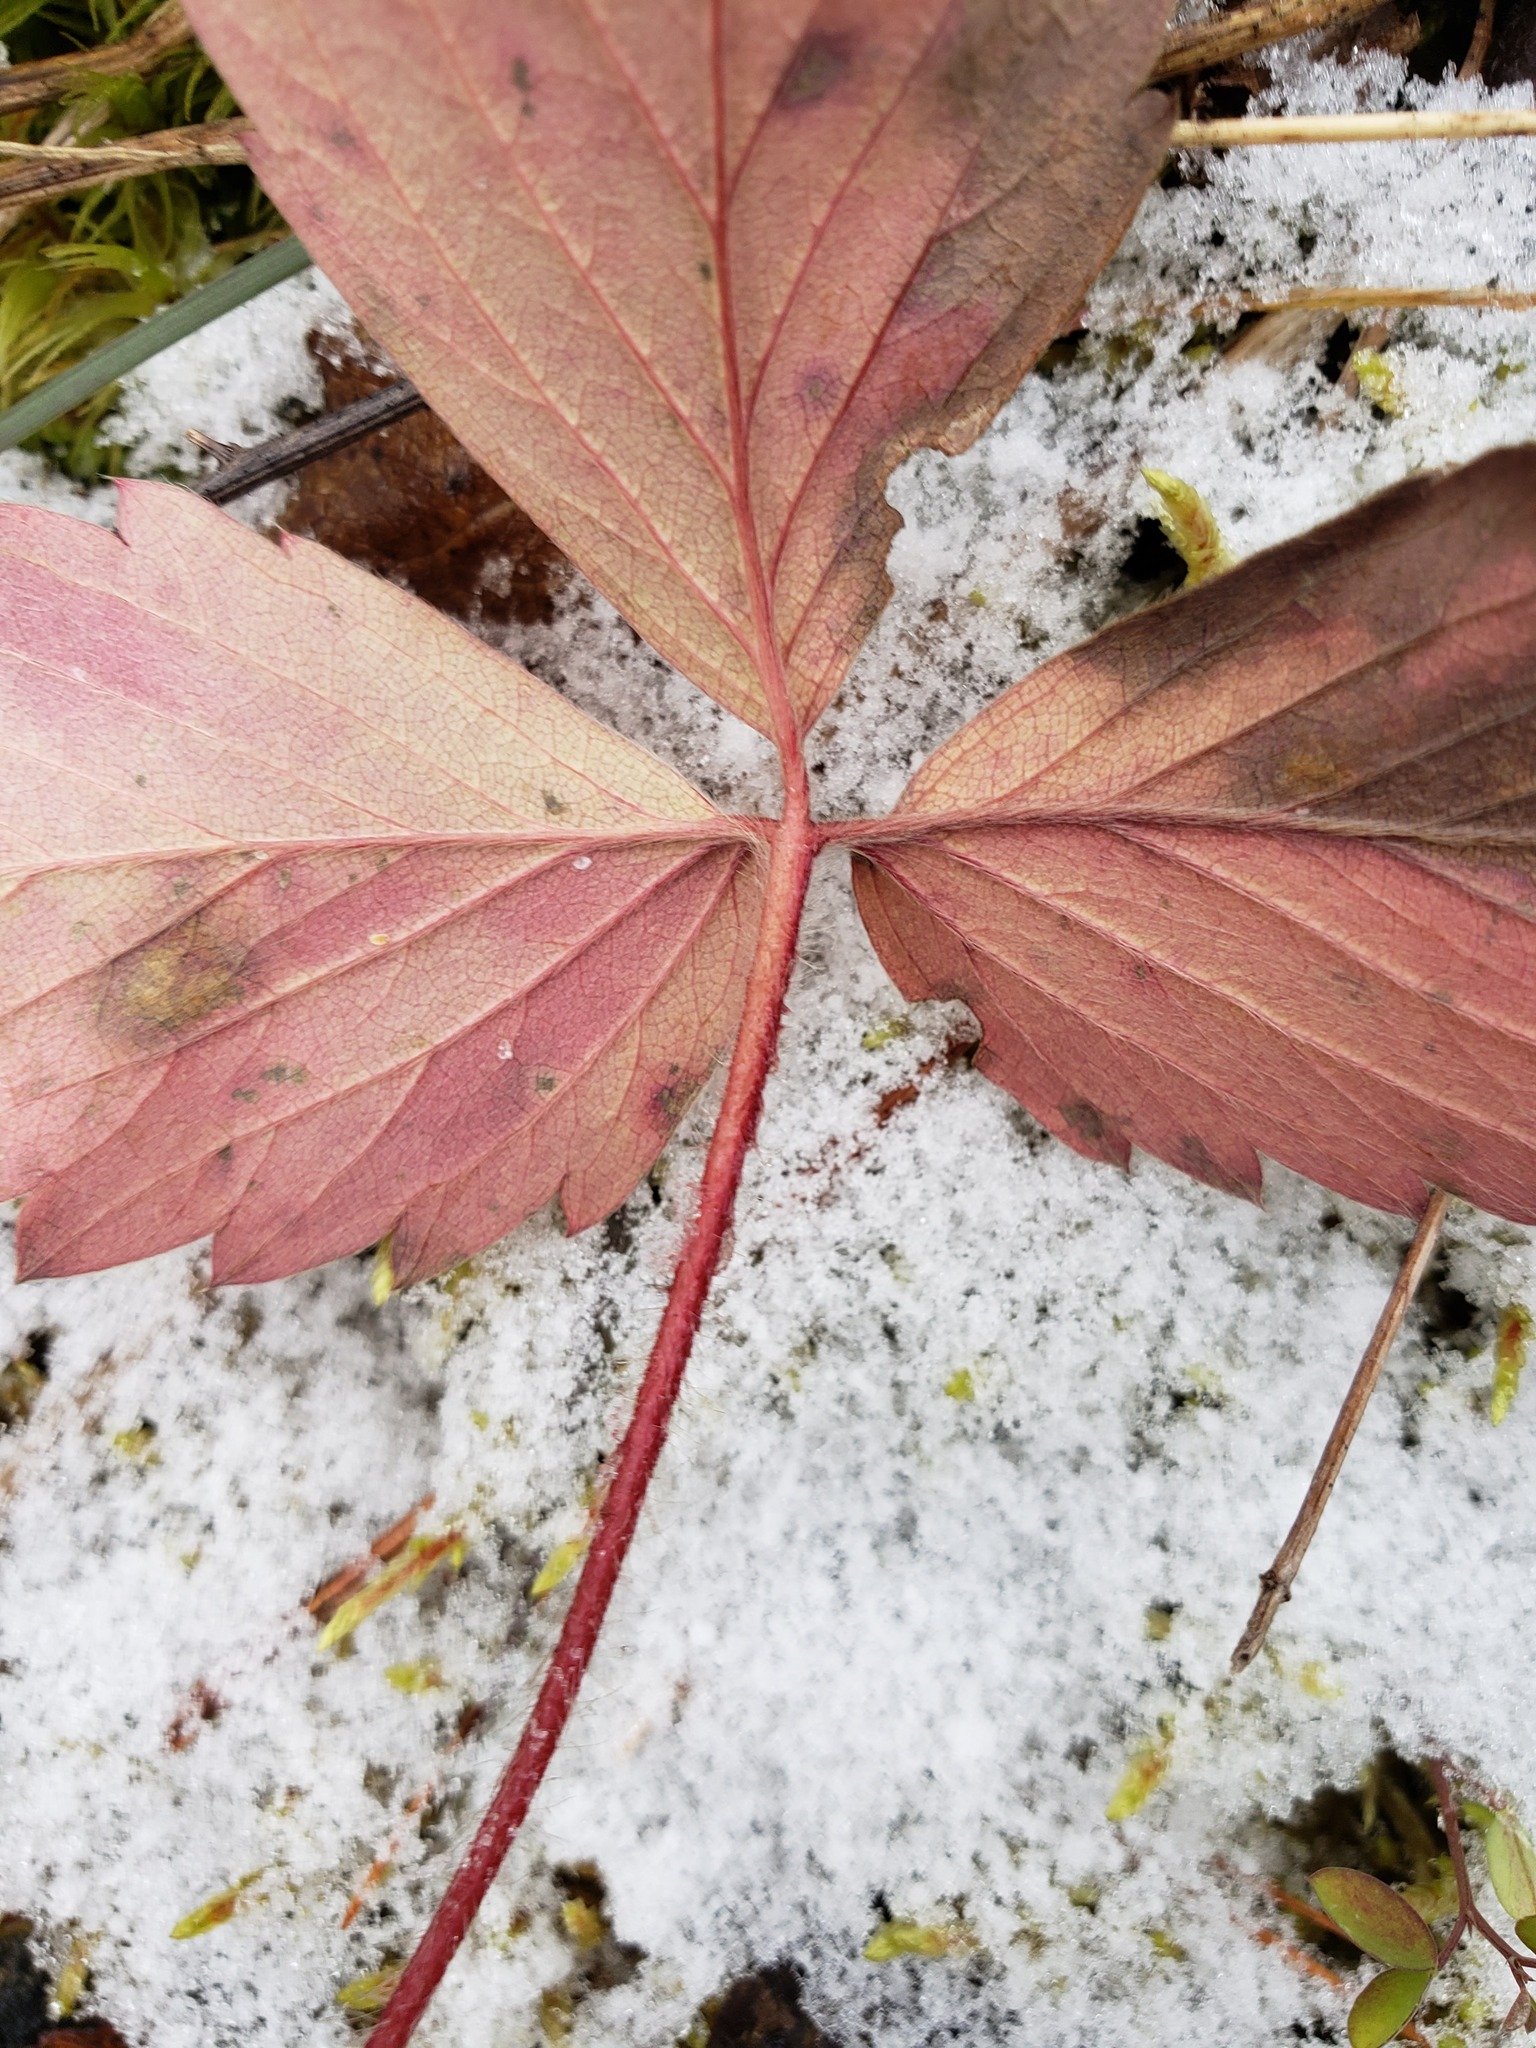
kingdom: Plantae
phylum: Tracheophyta
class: Magnoliopsida
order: Rosales
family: Rosaceae
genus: Fragaria
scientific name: Fragaria virginiana
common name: Thickleaved wild strawberry
